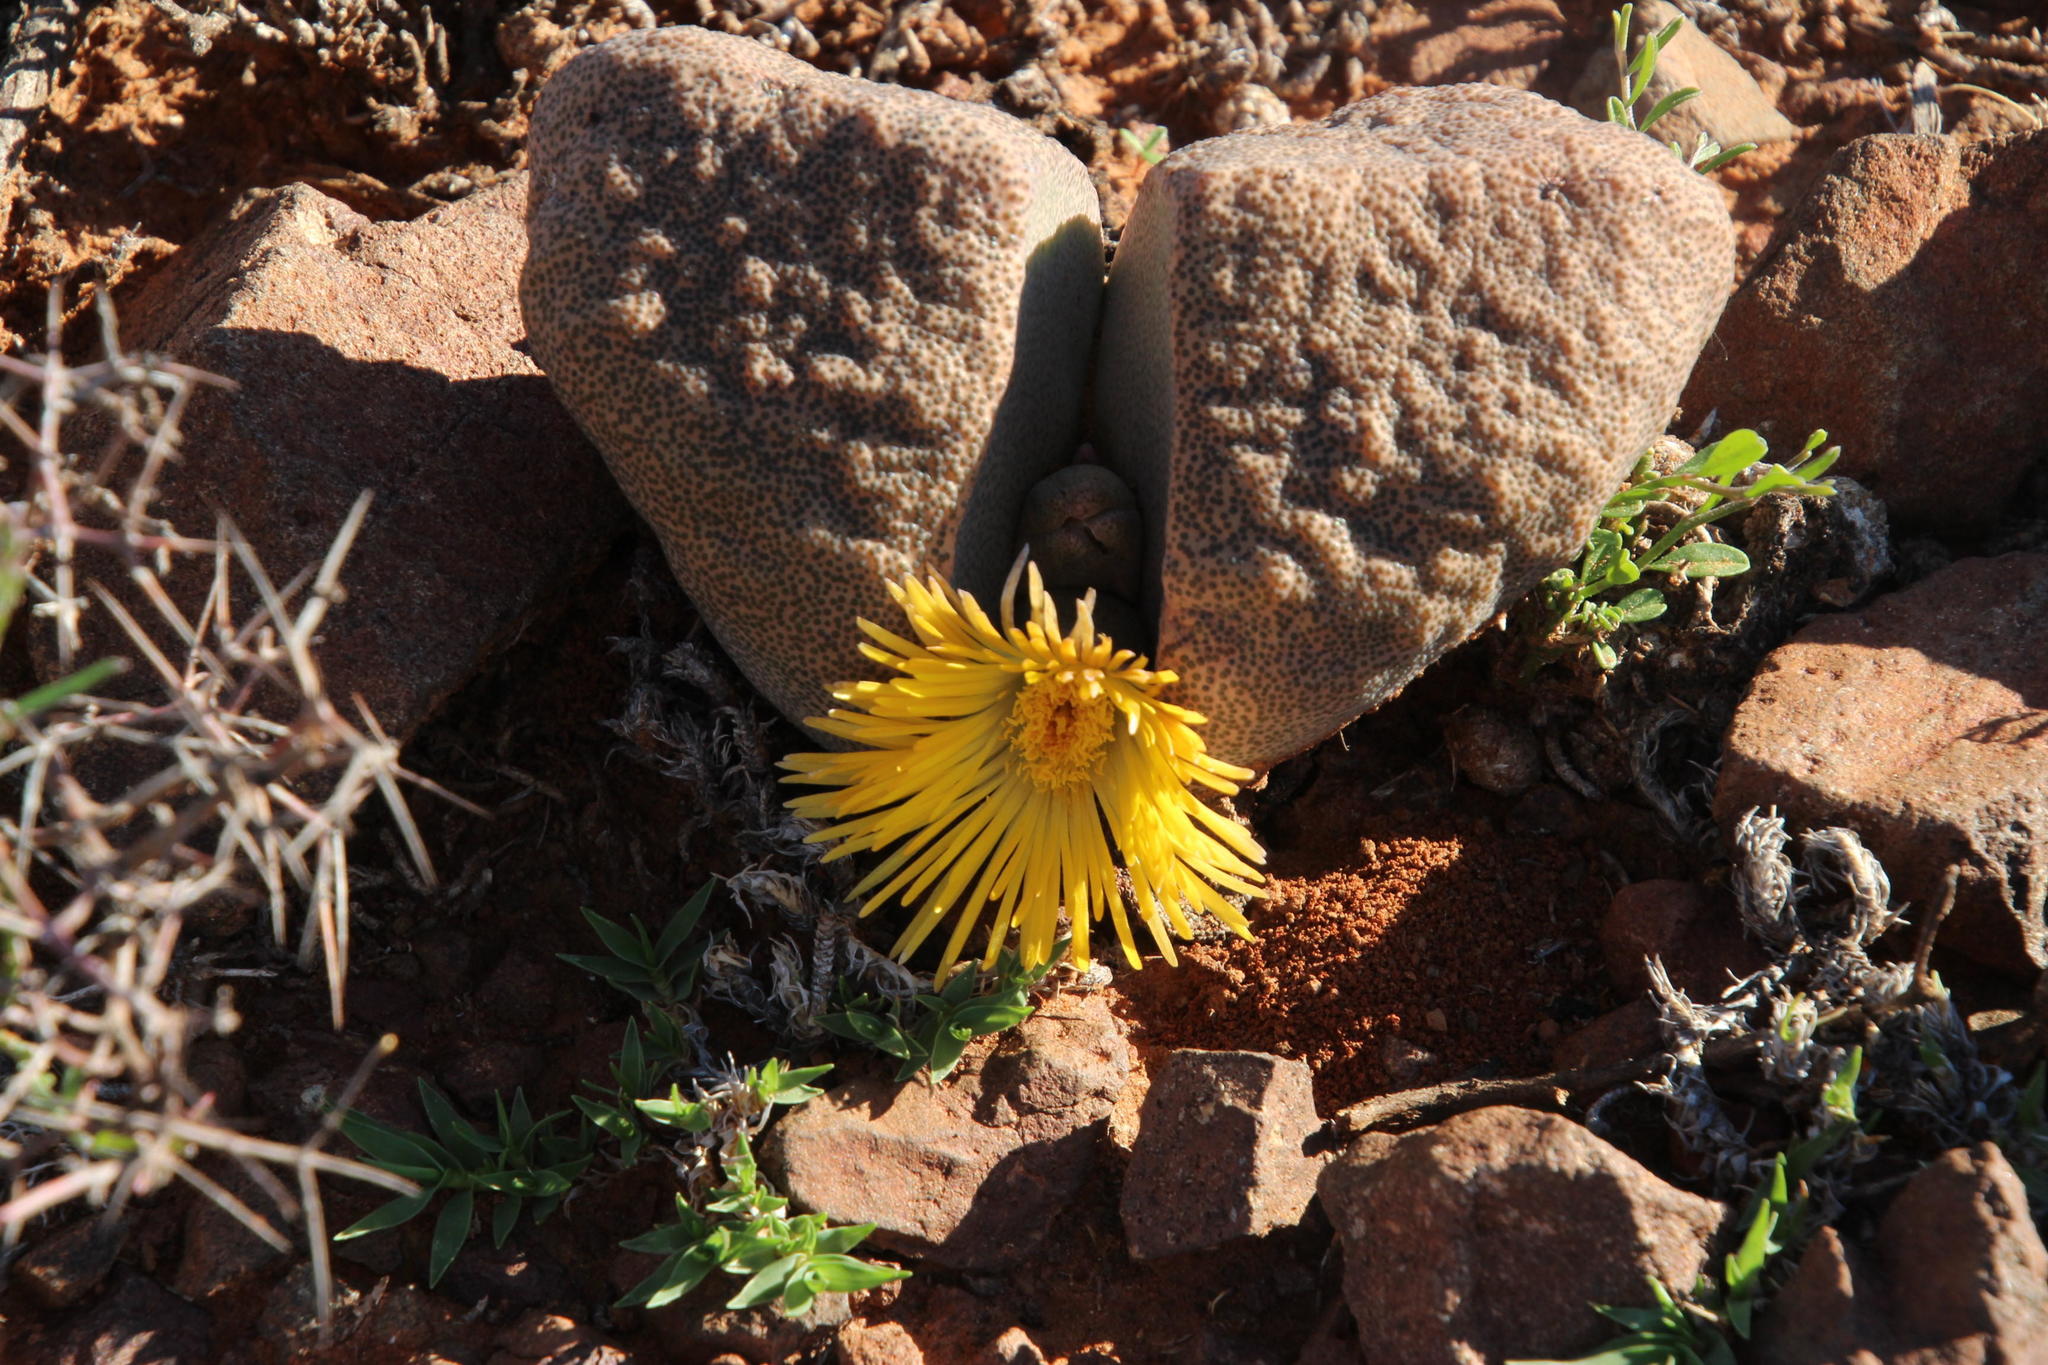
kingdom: Plantae
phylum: Tracheophyta
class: Magnoliopsida
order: Caryophyllales
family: Aizoaceae
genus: Pleiospilos
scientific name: Pleiospilos bolusii
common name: African living-rock
